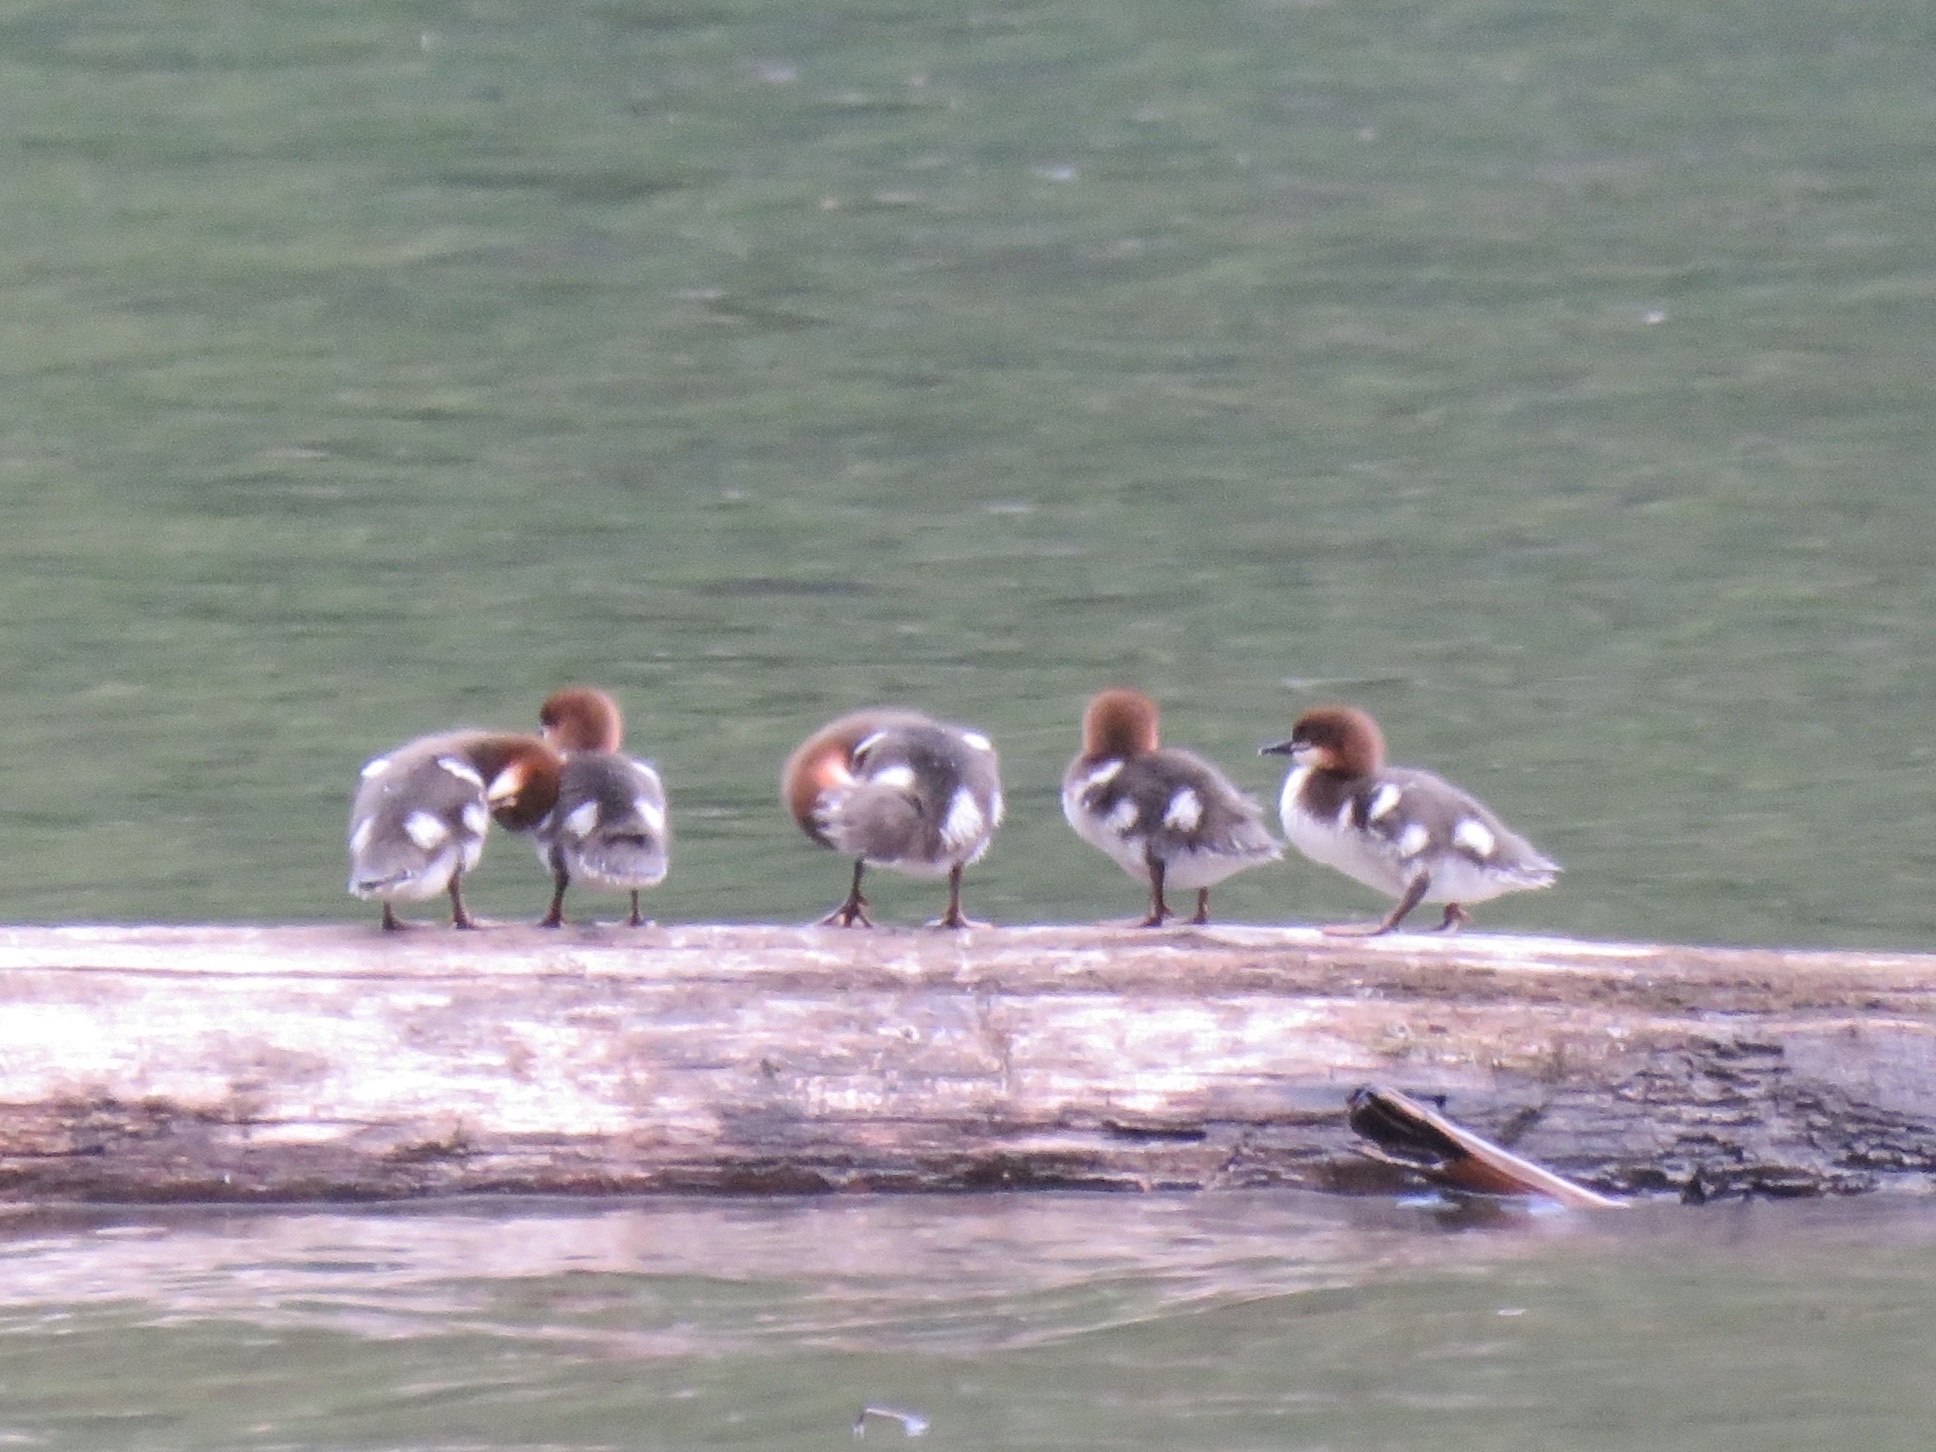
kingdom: Animalia
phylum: Chordata
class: Aves
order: Anseriformes
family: Anatidae
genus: Mergus
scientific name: Mergus merganser
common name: Common merganser
